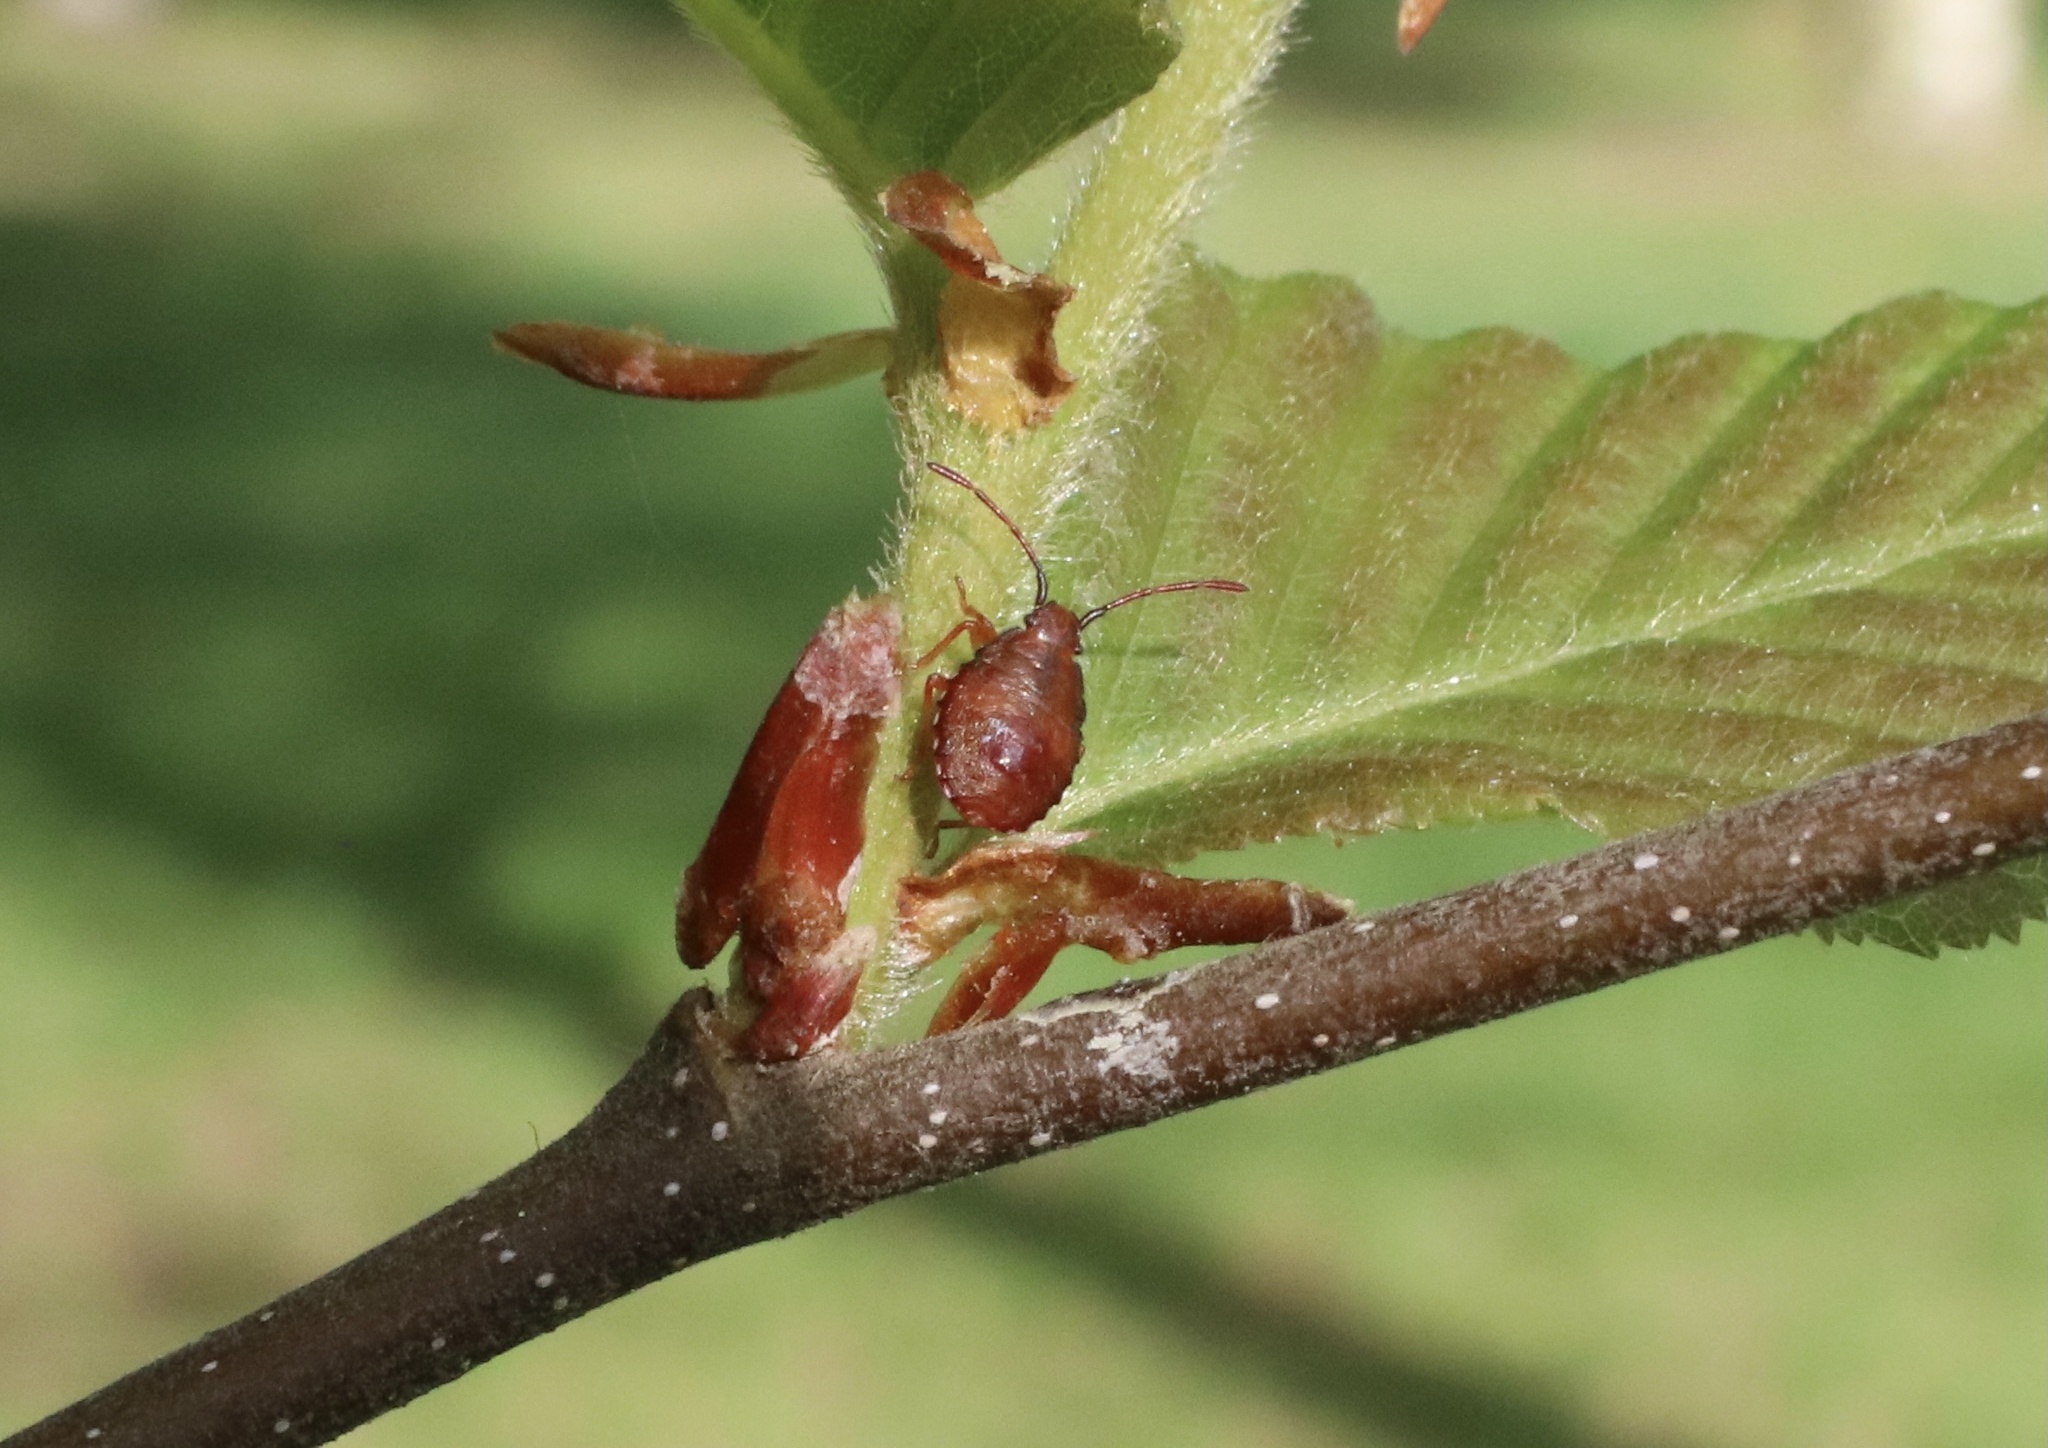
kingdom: Animalia
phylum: Arthropoda
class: Insecta
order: Hemiptera
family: Acanthosomatidae
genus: Planois
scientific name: Planois gayi
